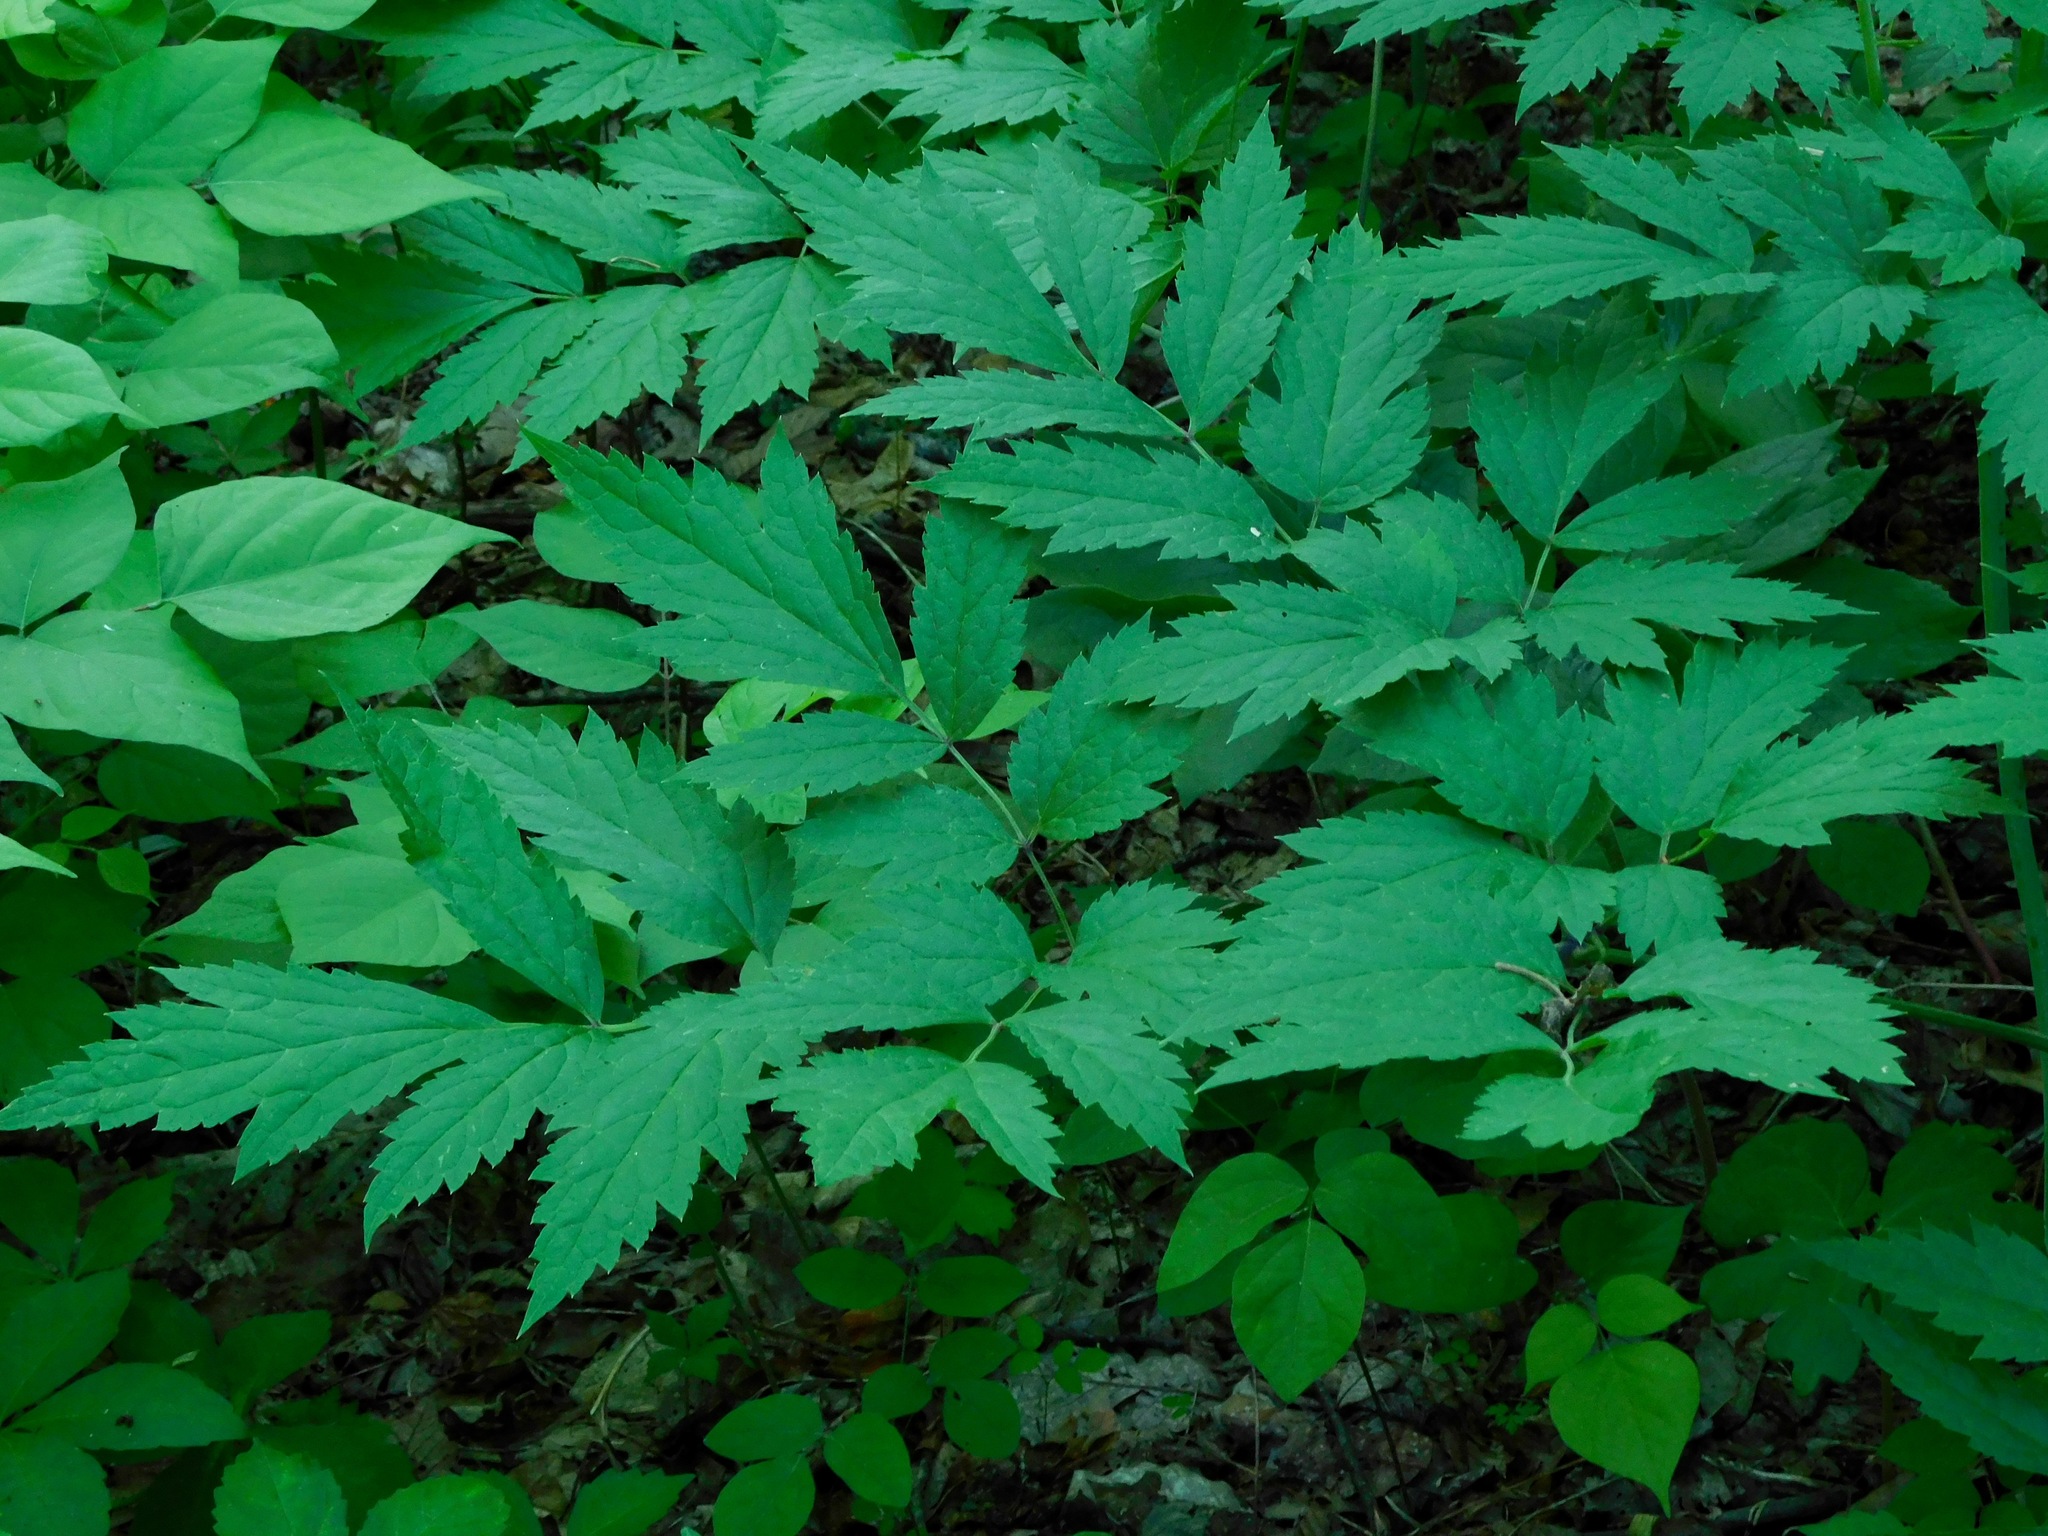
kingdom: Plantae
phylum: Tracheophyta
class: Magnoliopsida
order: Ranunculales
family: Ranunculaceae
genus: Actaea
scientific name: Actaea racemosa
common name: Black cohosh
